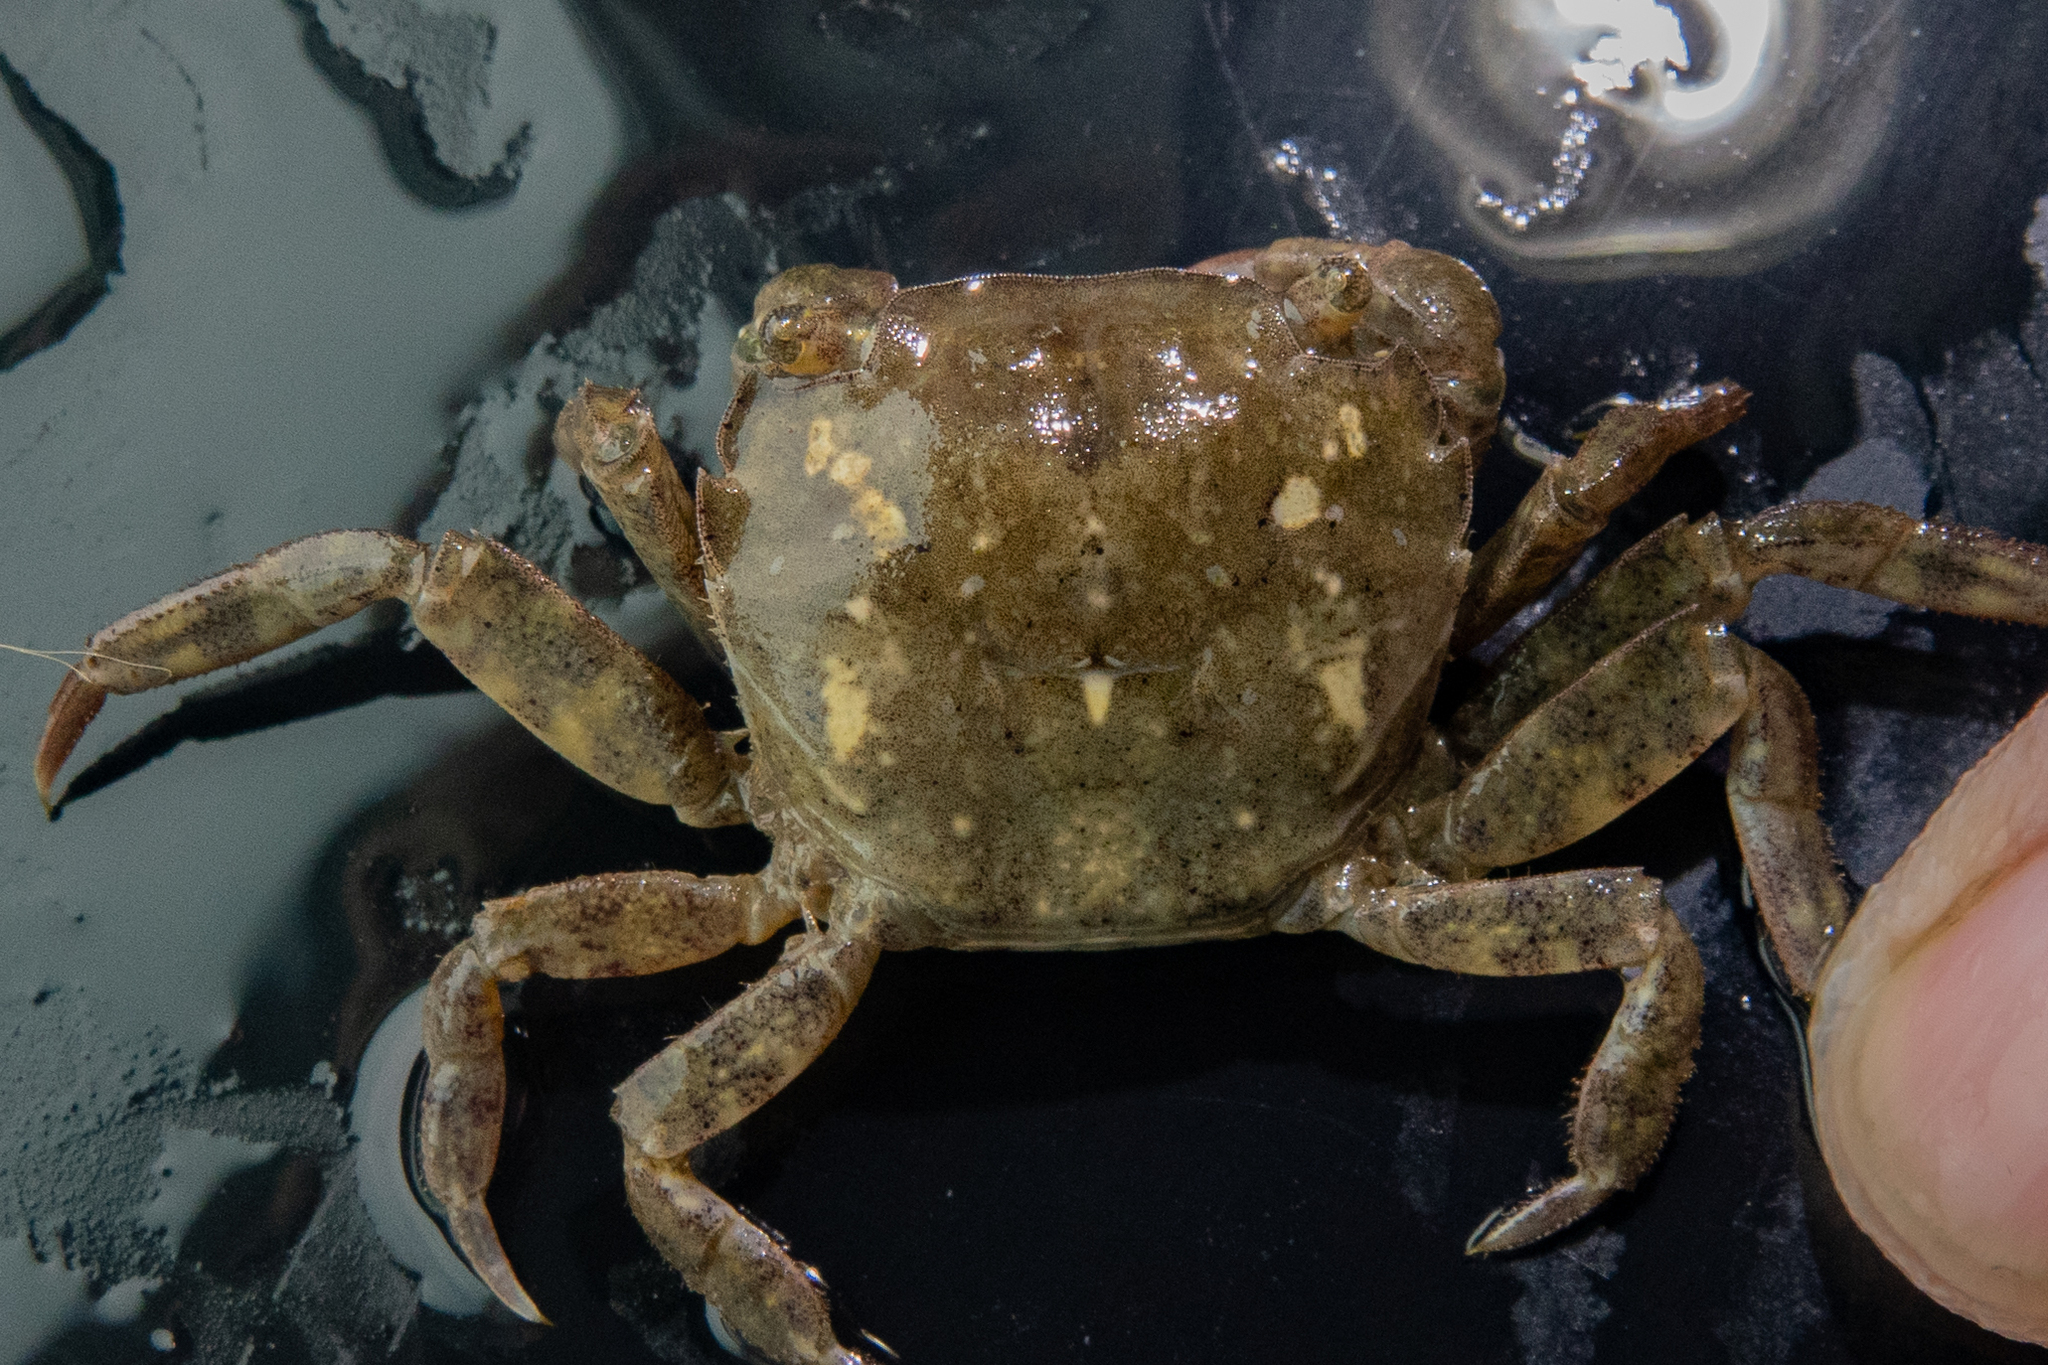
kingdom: Animalia
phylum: Arthropoda
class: Malacostraca
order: Decapoda
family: Varunidae
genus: Hemigrapsus
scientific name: Hemigrapsus takanoi
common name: Asian brush crab
